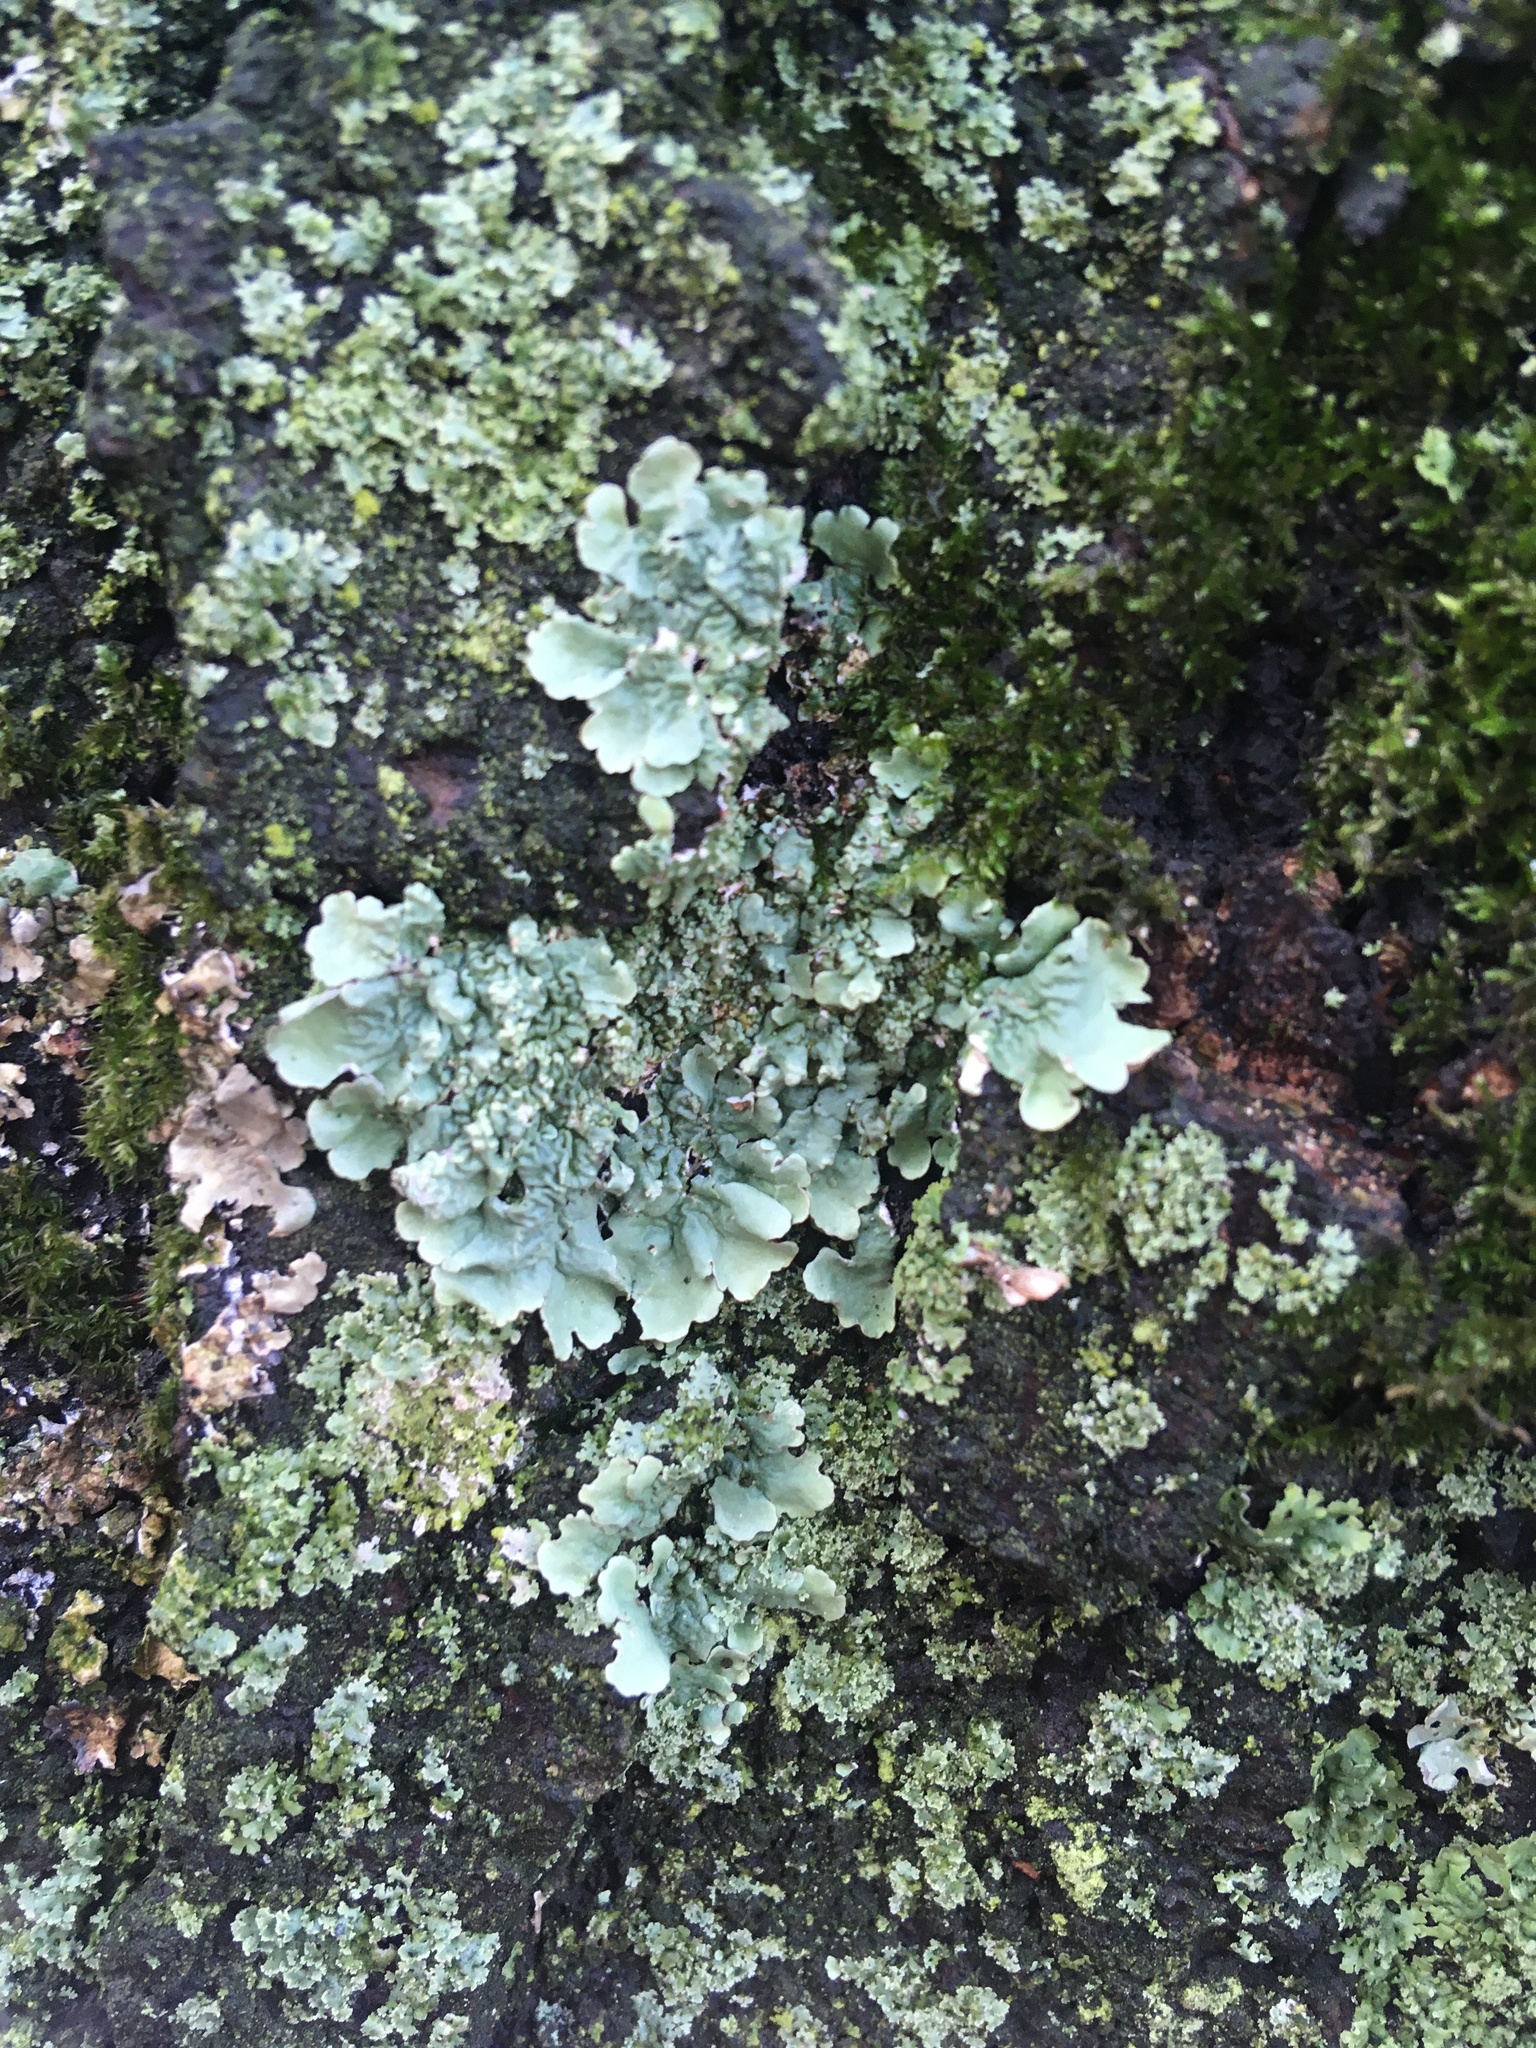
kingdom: Fungi
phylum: Ascomycota
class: Lecanoromycetes
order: Lecanorales
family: Parmeliaceae
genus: Flavoparmelia
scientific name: Flavoparmelia caperata
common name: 40-mile per hour lichen
